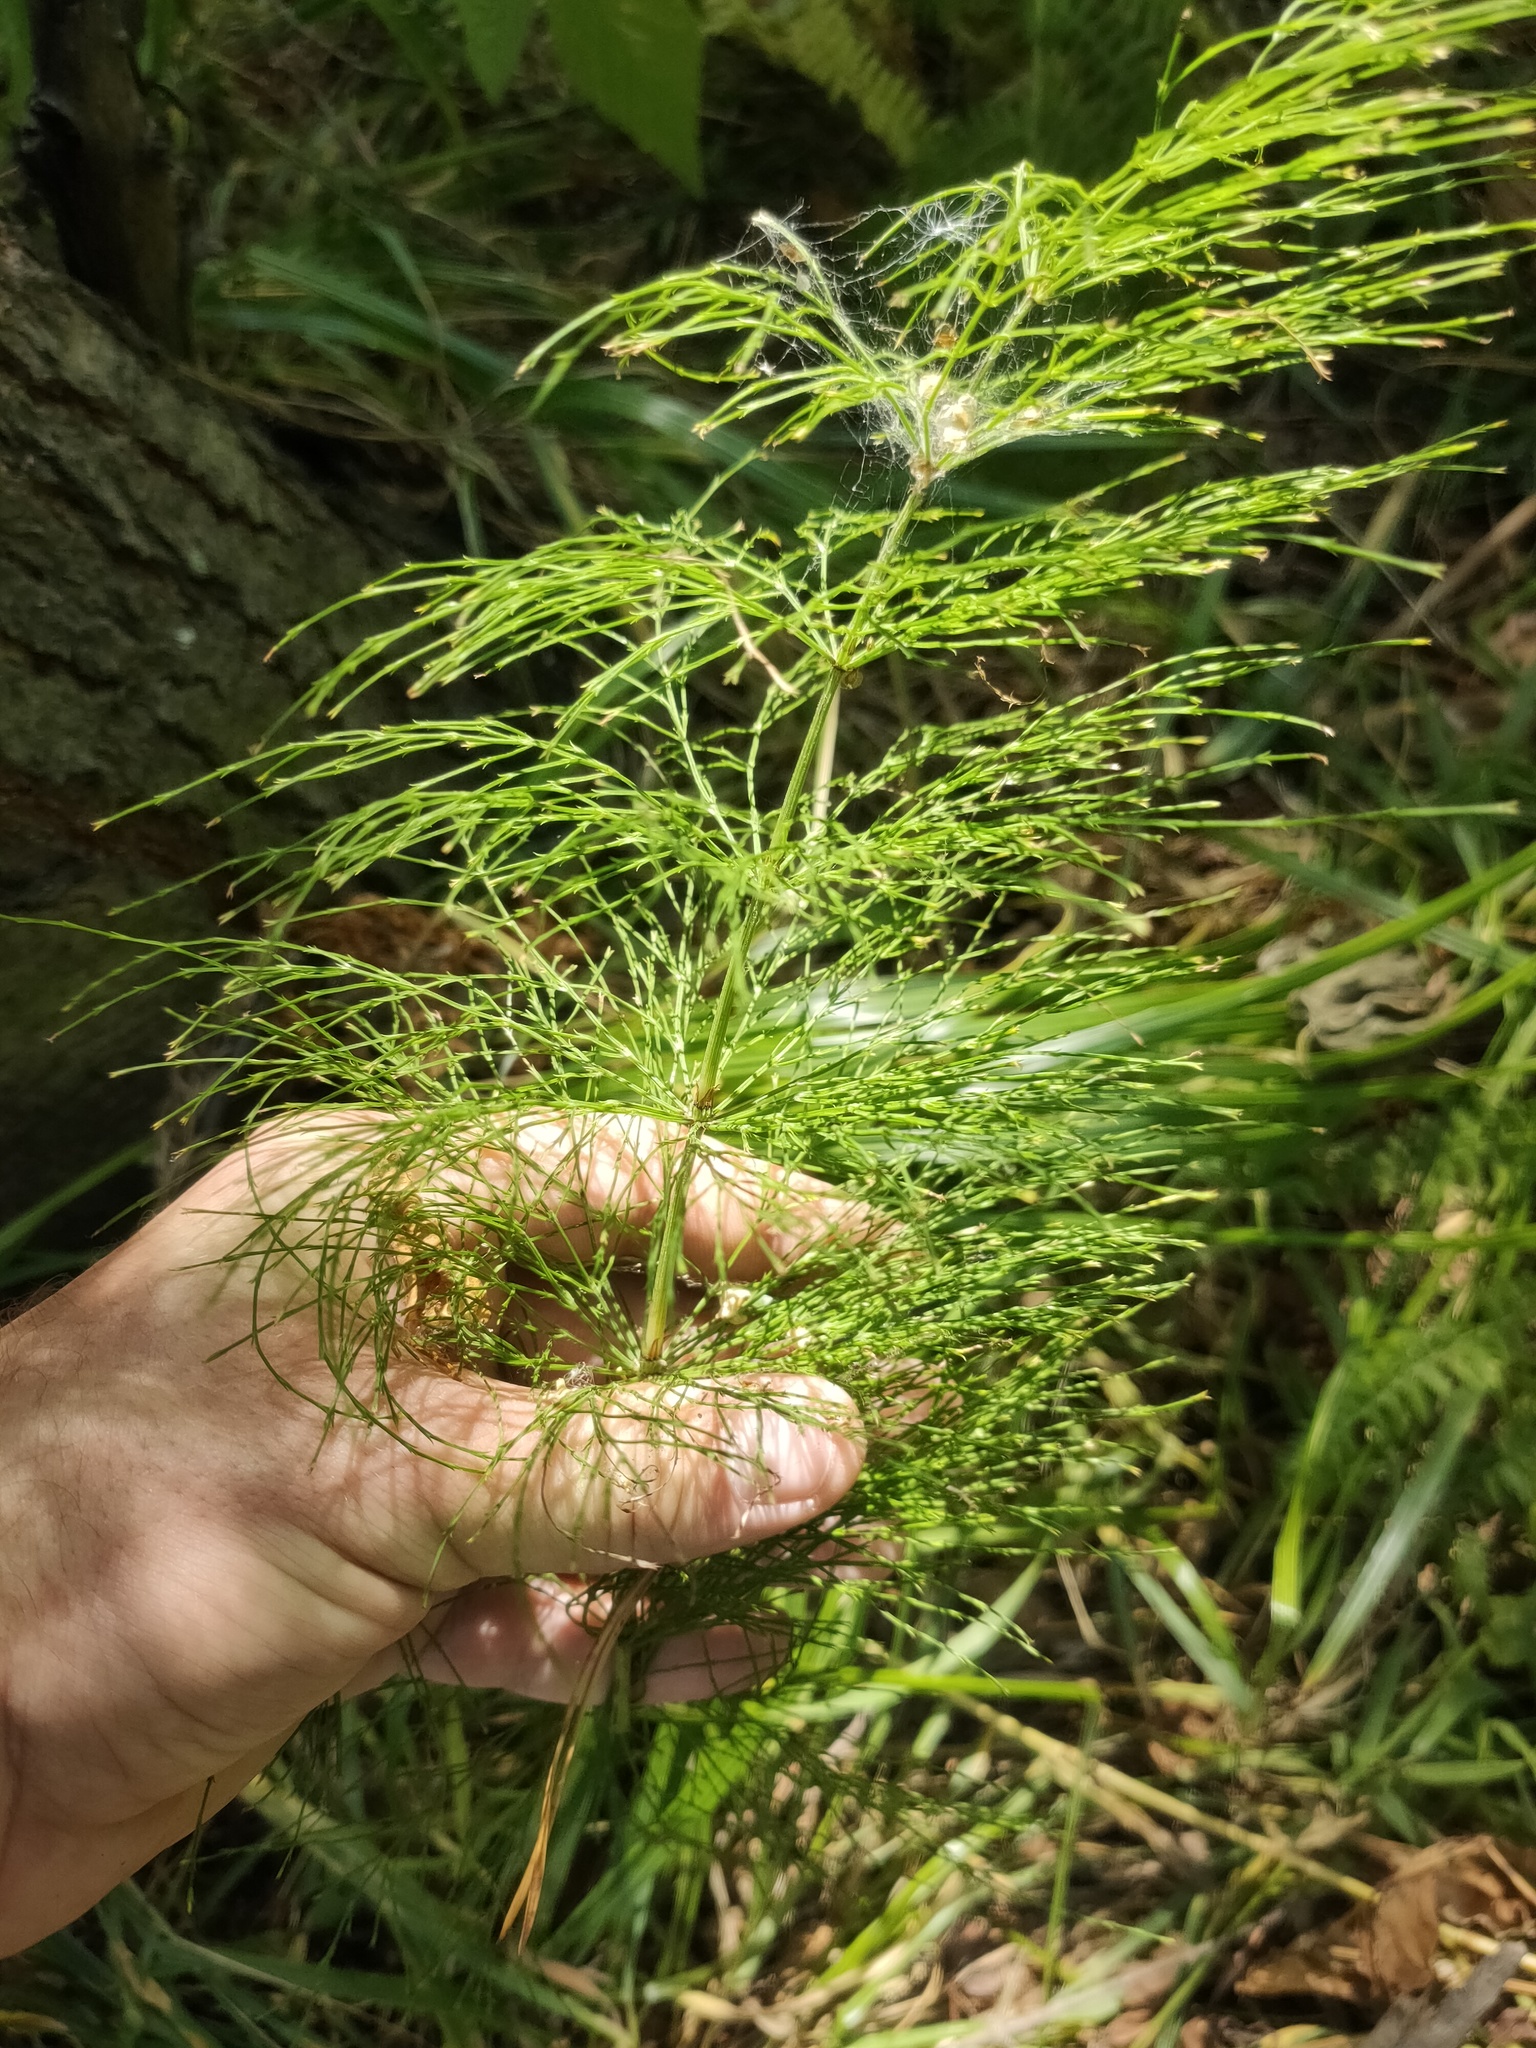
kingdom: Plantae
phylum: Tracheophyta
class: Polypodiopsida
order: Equisetales
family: Equisetaceae
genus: Equisetum
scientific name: Equisetum sylvaticum
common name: Wood horsetail
